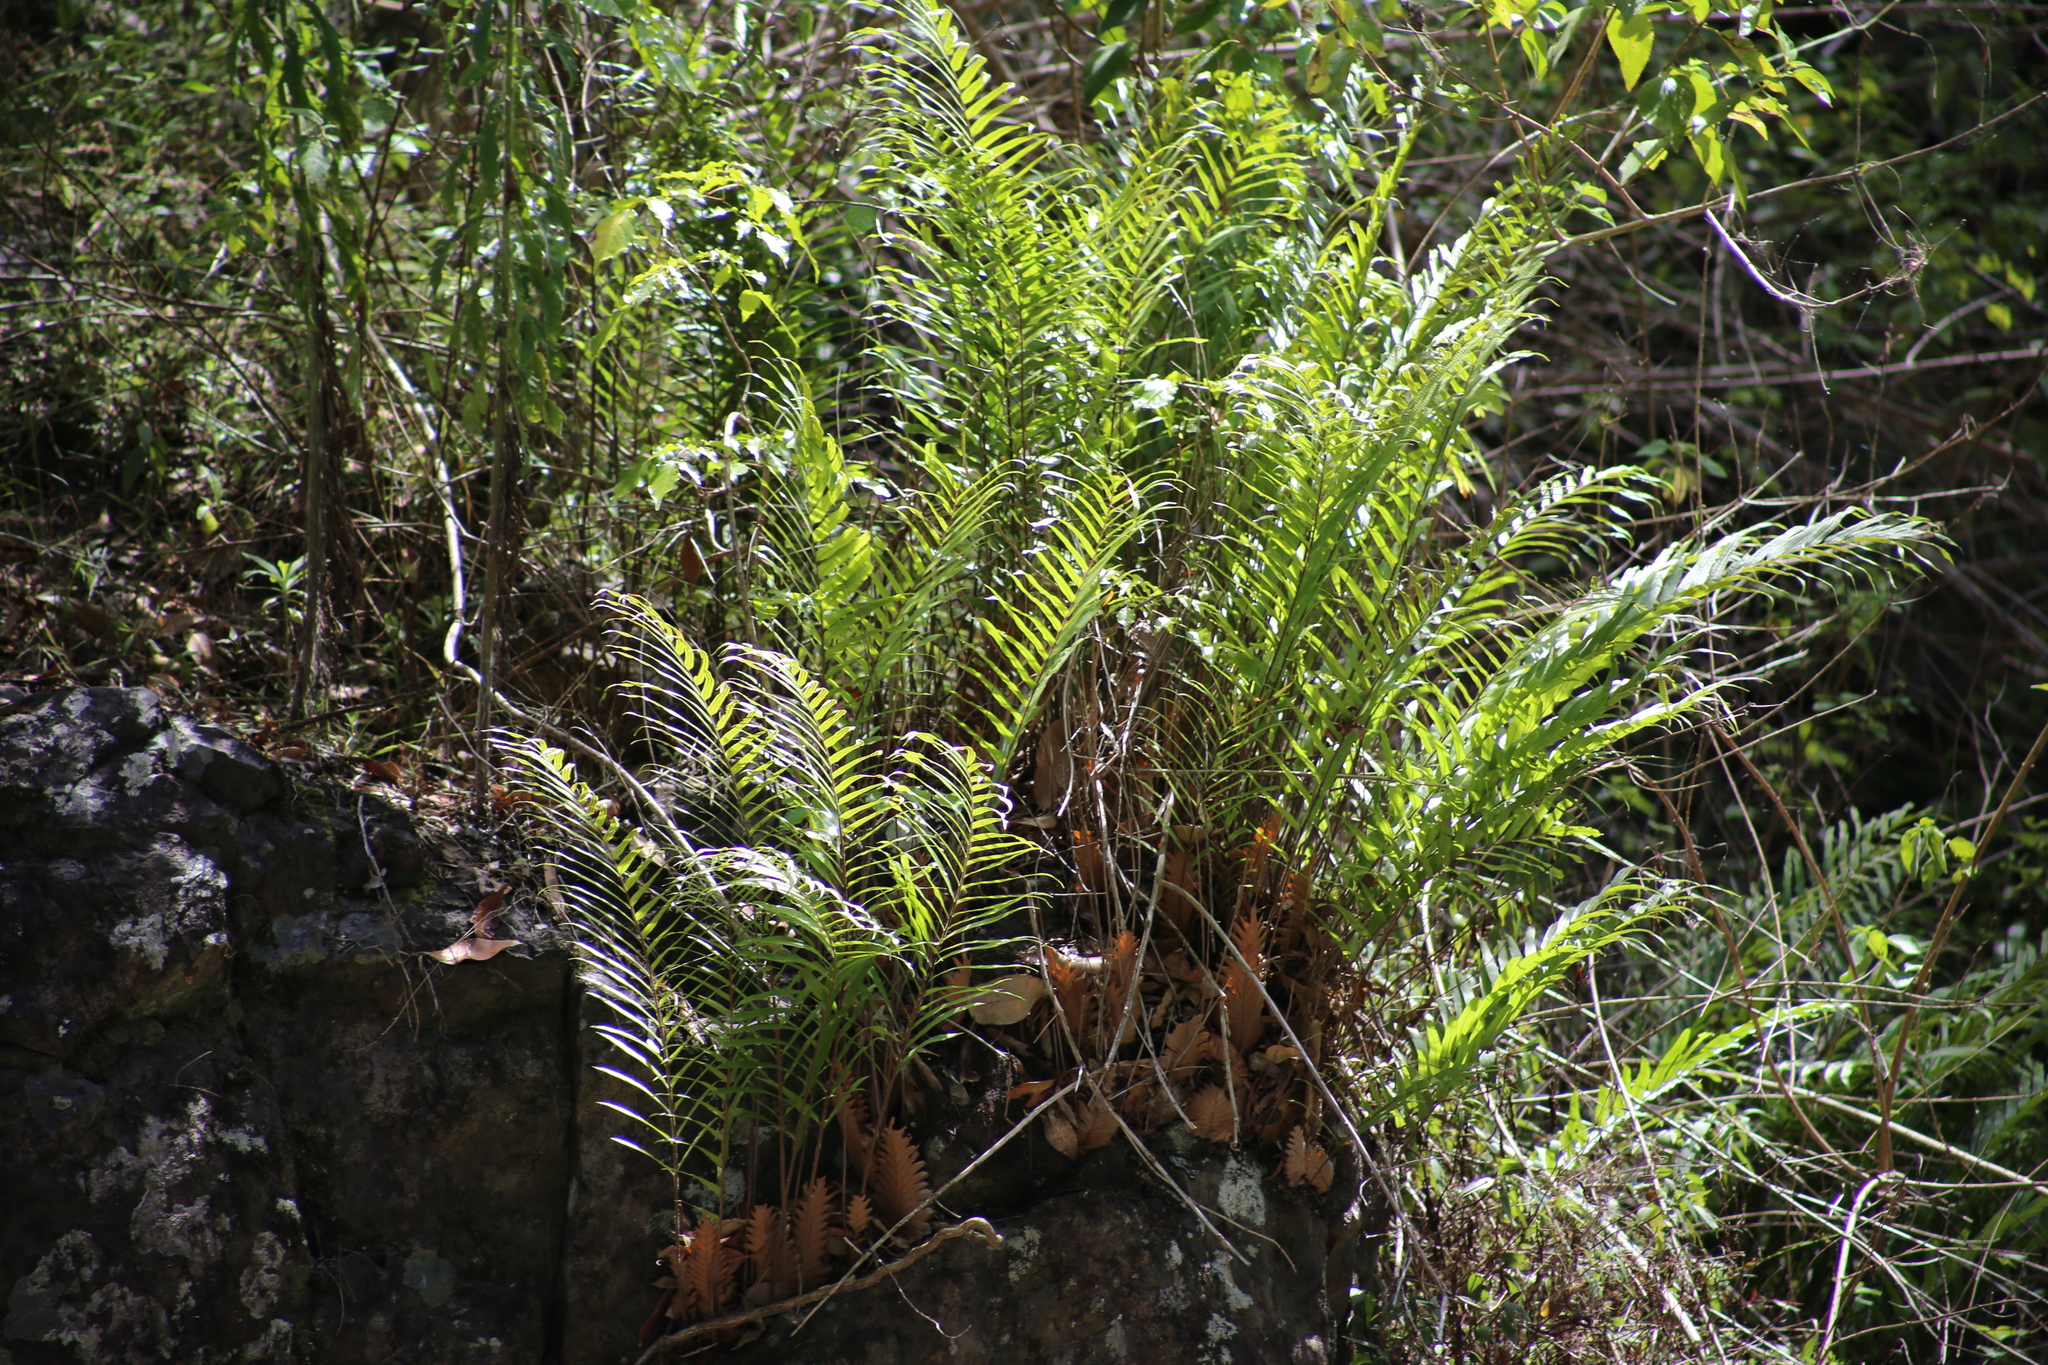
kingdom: Plantae
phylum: Tracheophyta
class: Polypodiopsida
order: Polypodiales
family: Polypodiaceae
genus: Drynaria
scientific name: Drynaria rigidula
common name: Basket fern
